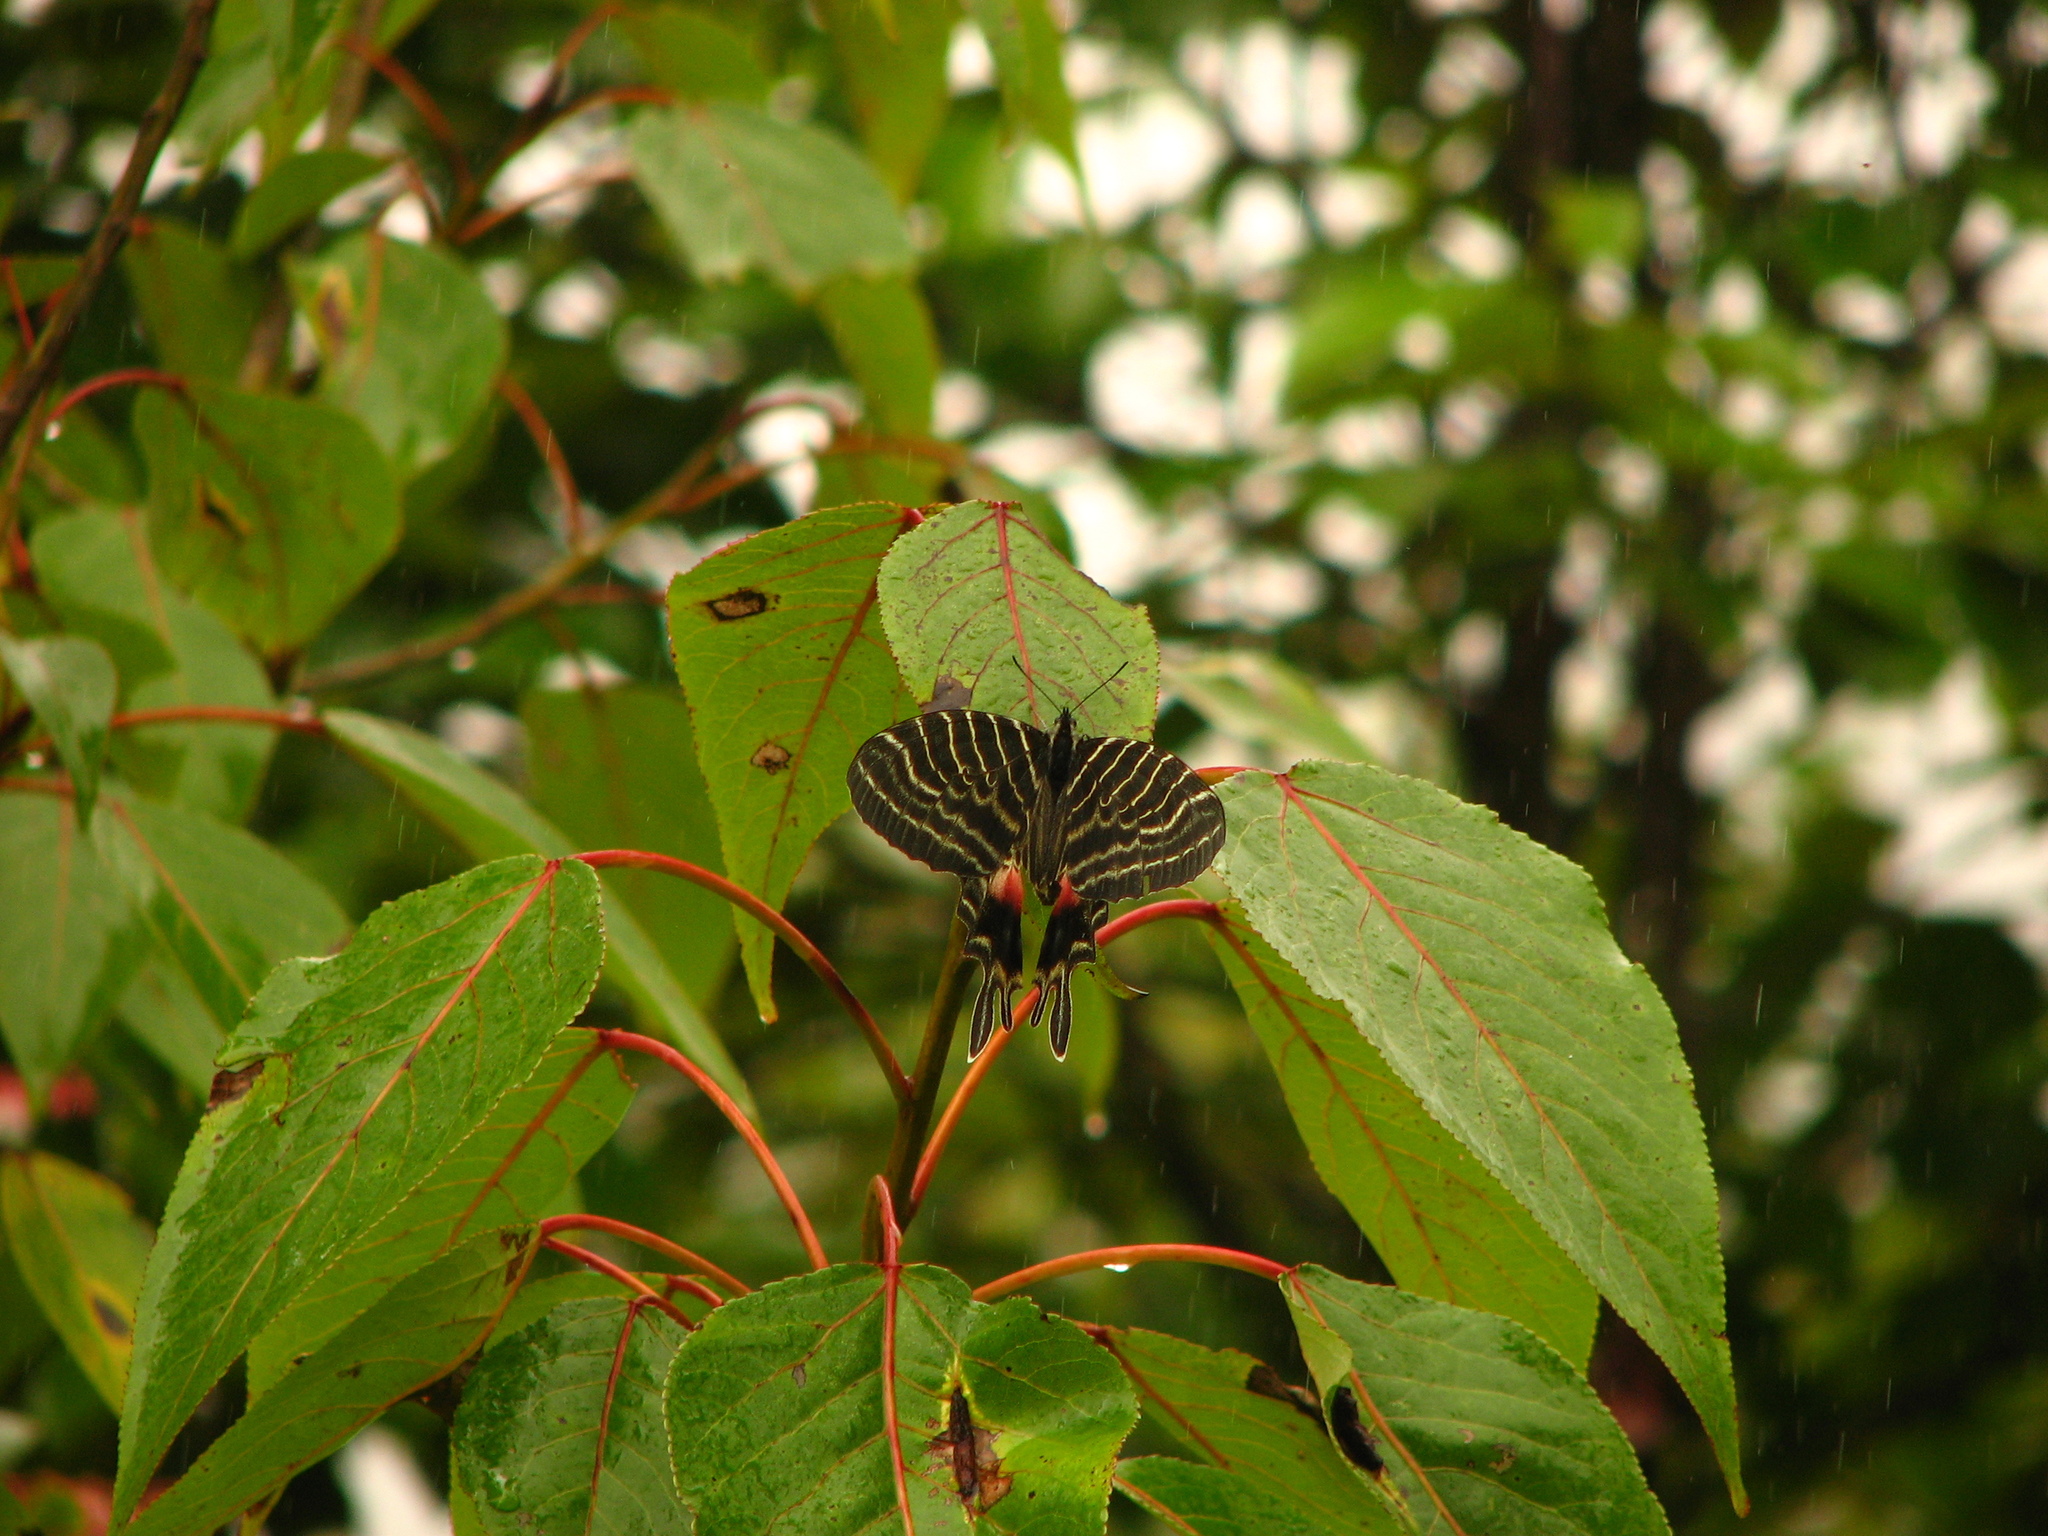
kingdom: Animalia
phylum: Arthropoda
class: Insecta
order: Lepidoptera
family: Papilionidae
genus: Bhutanitis
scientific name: Bhutanitis ludlowi
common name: Ludlow's bhutan glory
